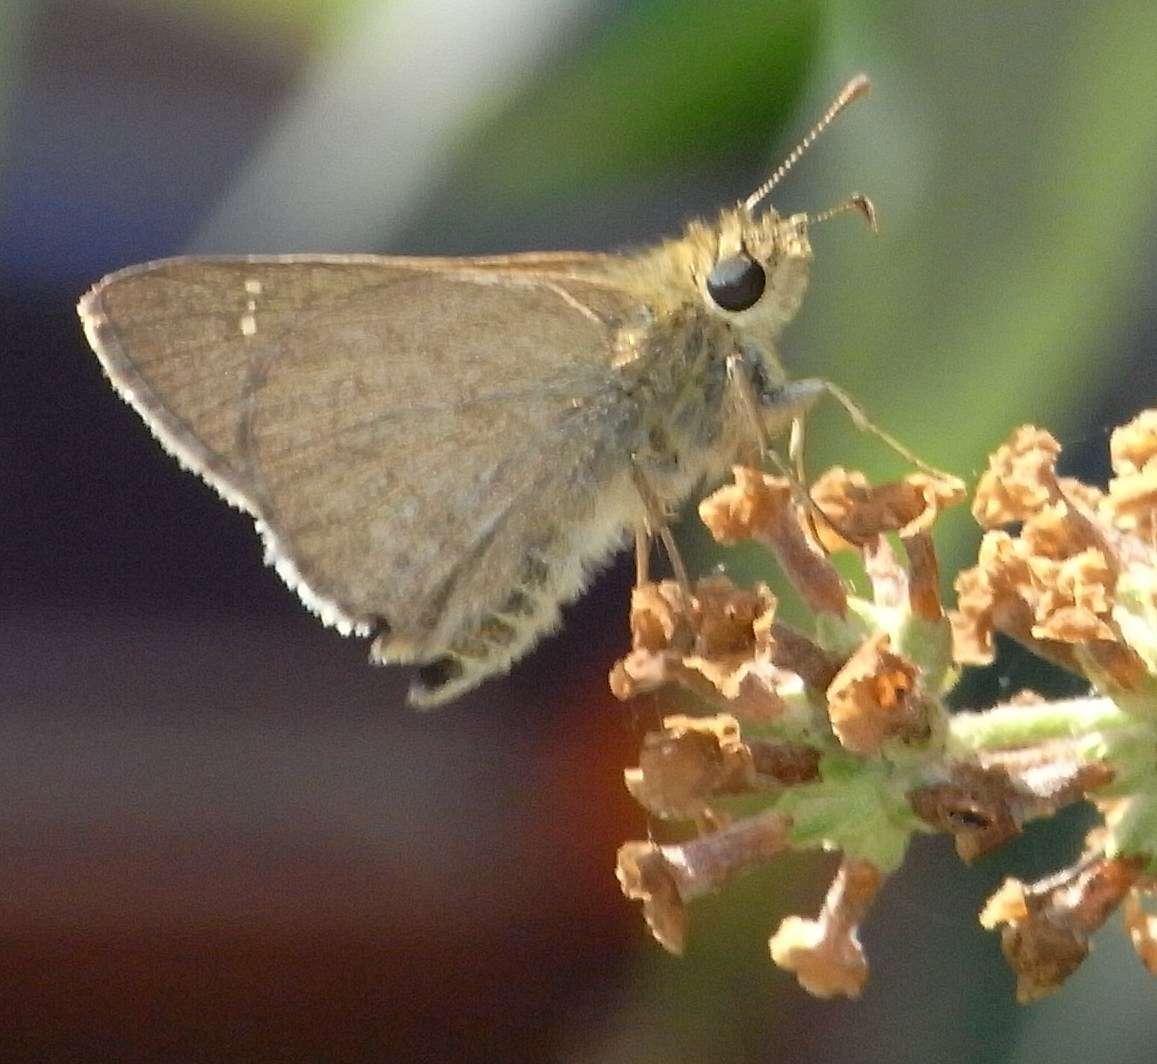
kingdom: Animalia
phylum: Arthropoda
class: Insecta
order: Lepidoptera
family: Hesperiidae
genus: Toxidia
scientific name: Toxidia
